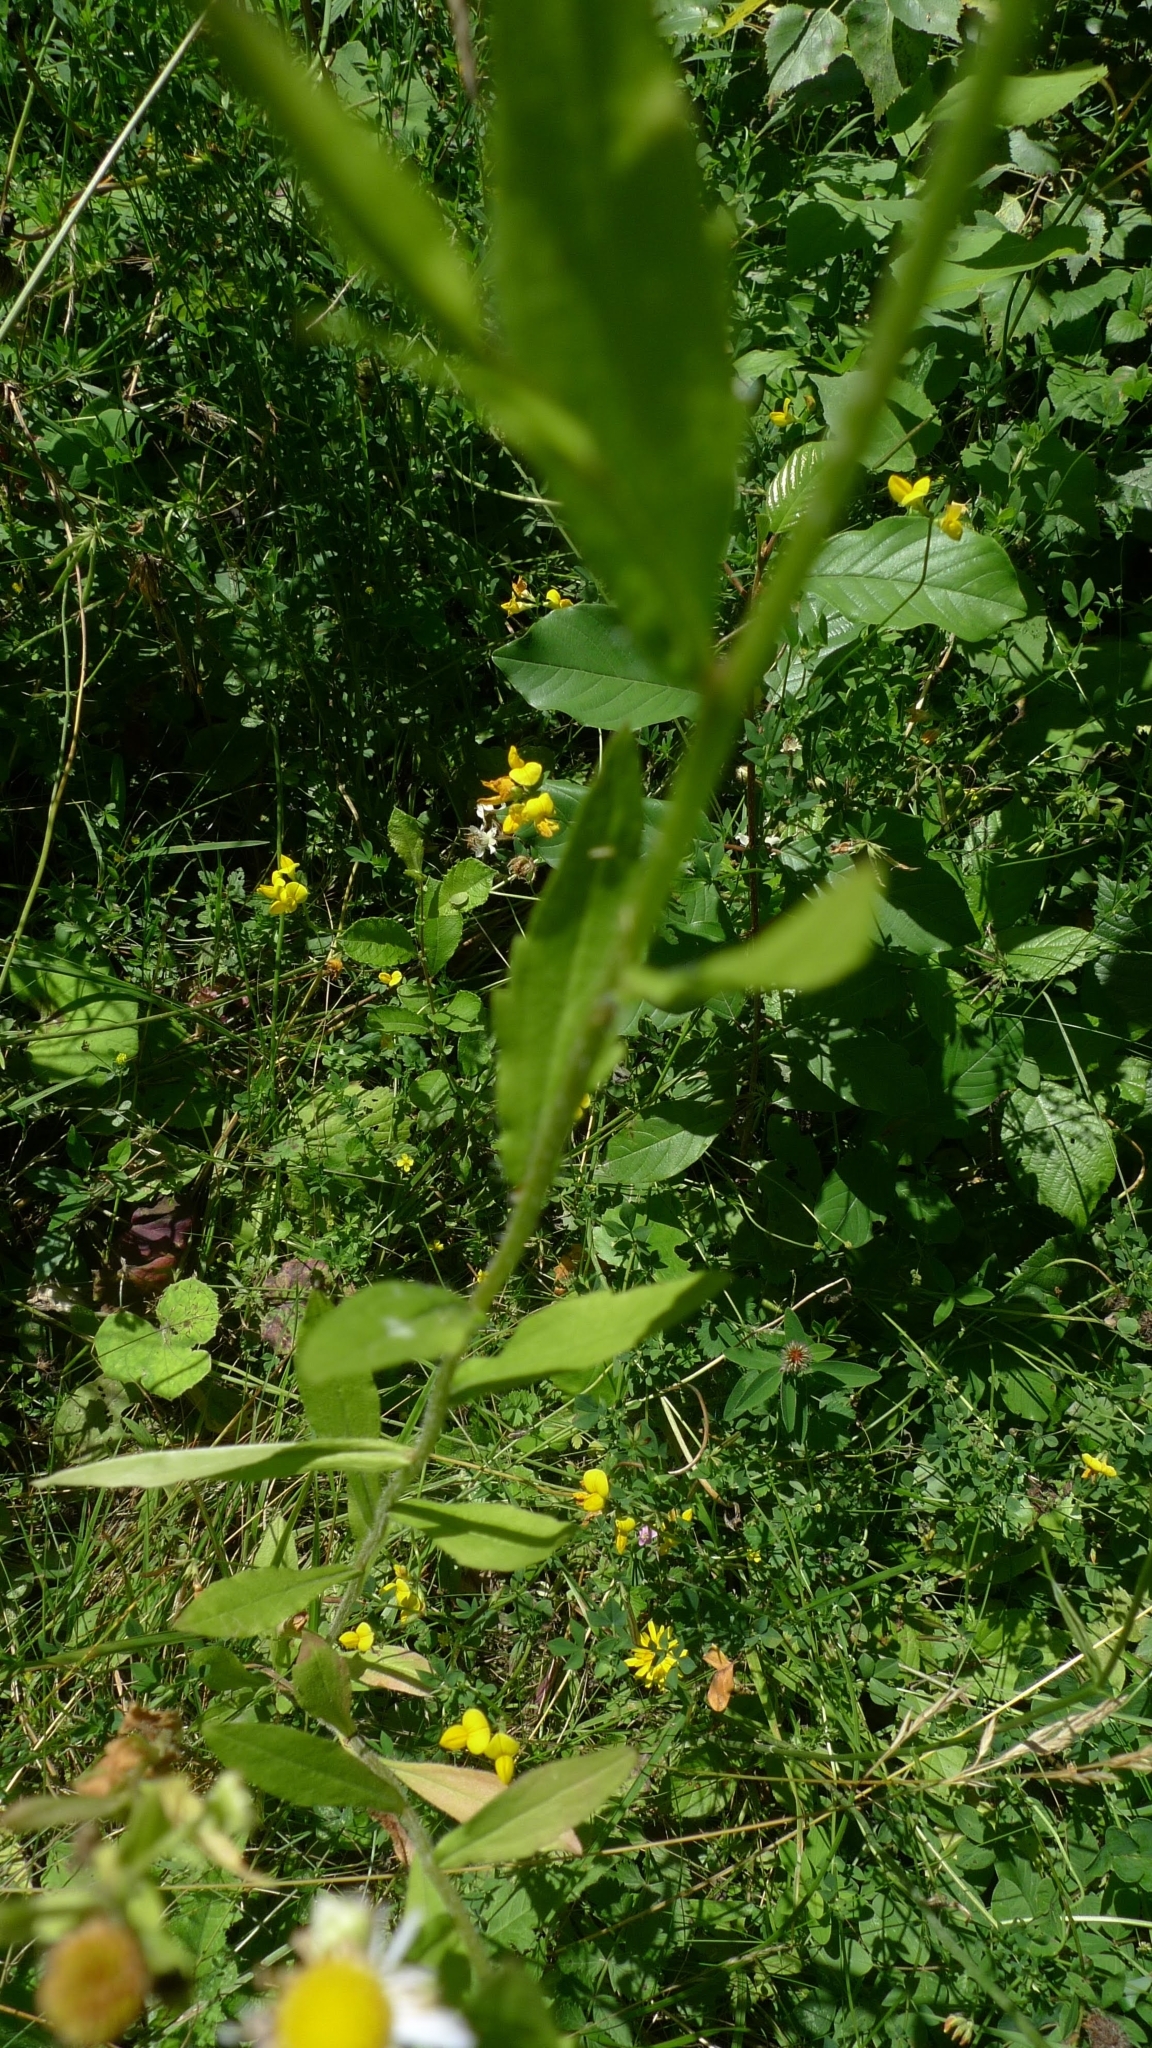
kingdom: Plantae
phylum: Tracheophyta
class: Magnoliopsida
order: Asterales
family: Asteraceae
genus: Erigeron
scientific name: Erigeron annuus
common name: Tall fleabane
